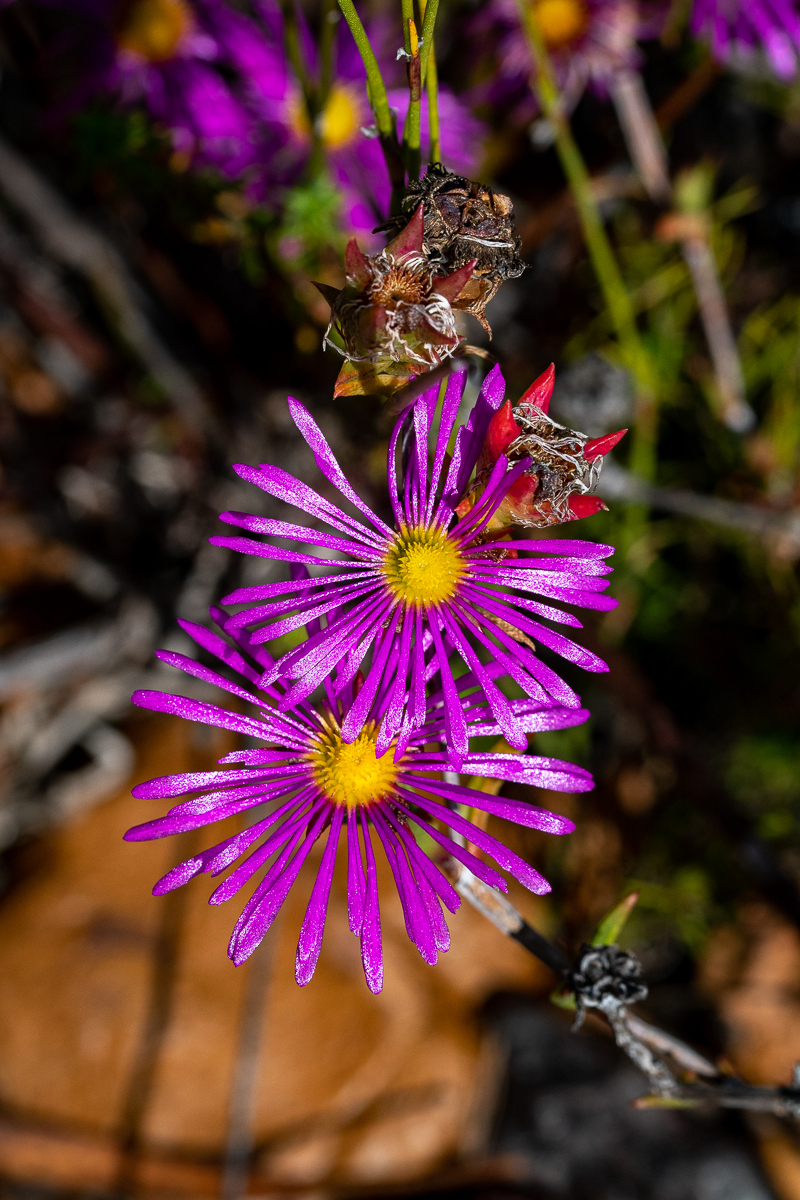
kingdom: Plantae
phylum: Tracheophyta
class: Magnoliopsida
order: Caryophyllales
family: Aizoaceae
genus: Erepsia
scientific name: Erepsia anceps
